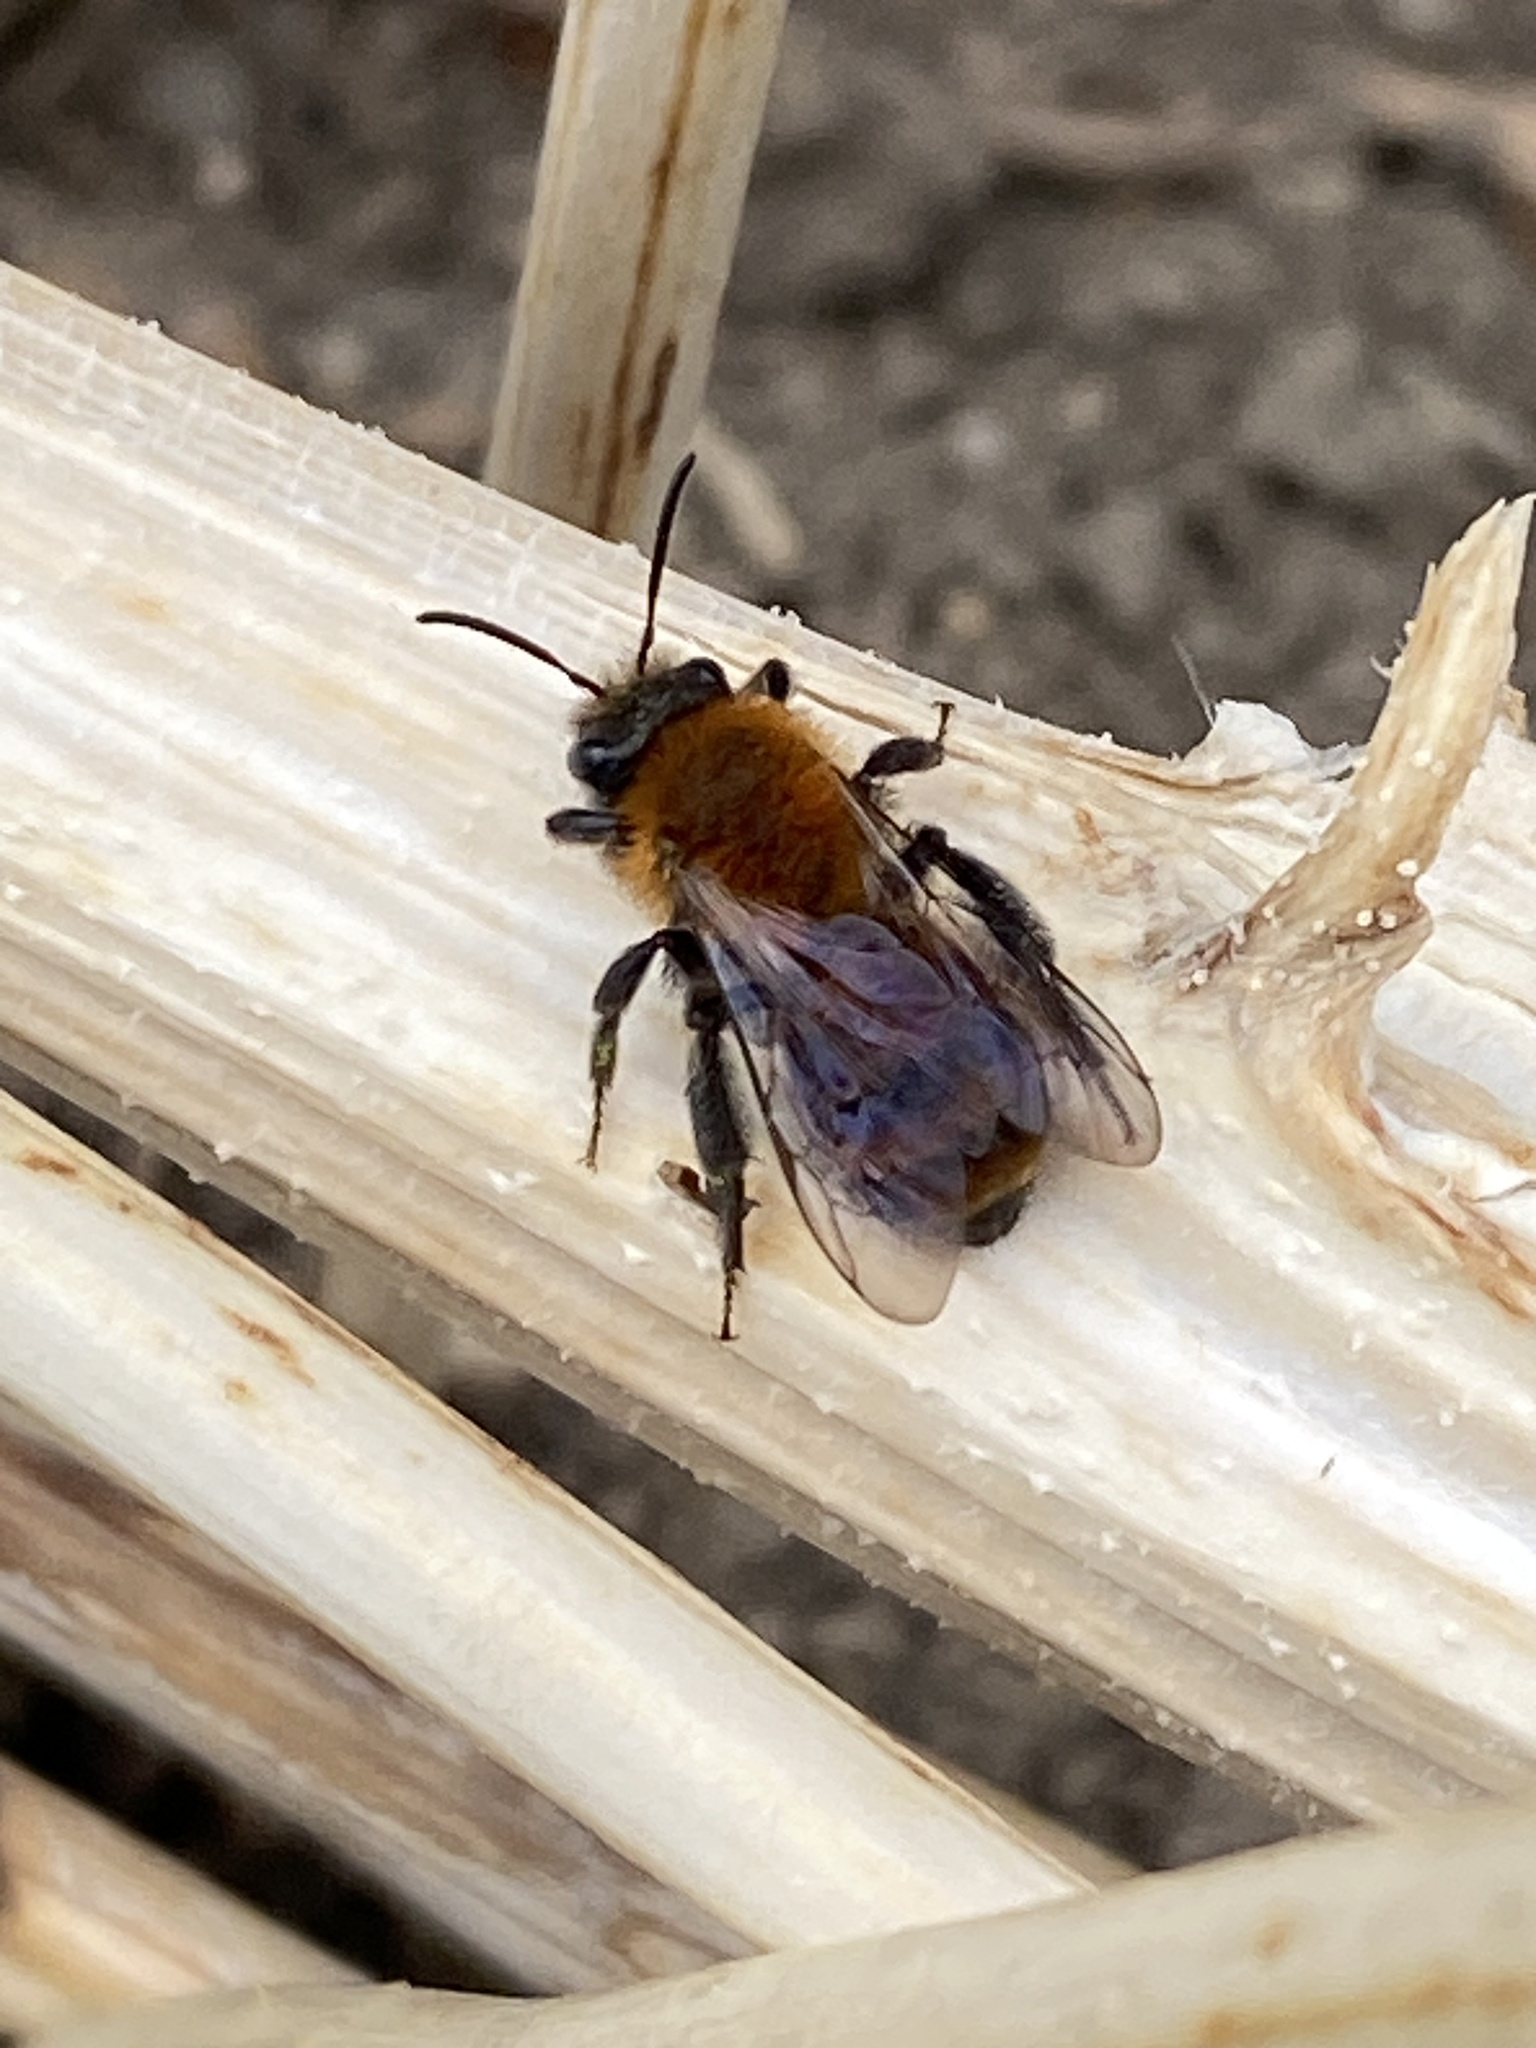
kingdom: Animalia
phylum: Arthropoda
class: Insecta
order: Hymenoptera
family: Andrenidae
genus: Andrena
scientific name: Andrena milwaukeensis
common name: Milwaukee mining bee
